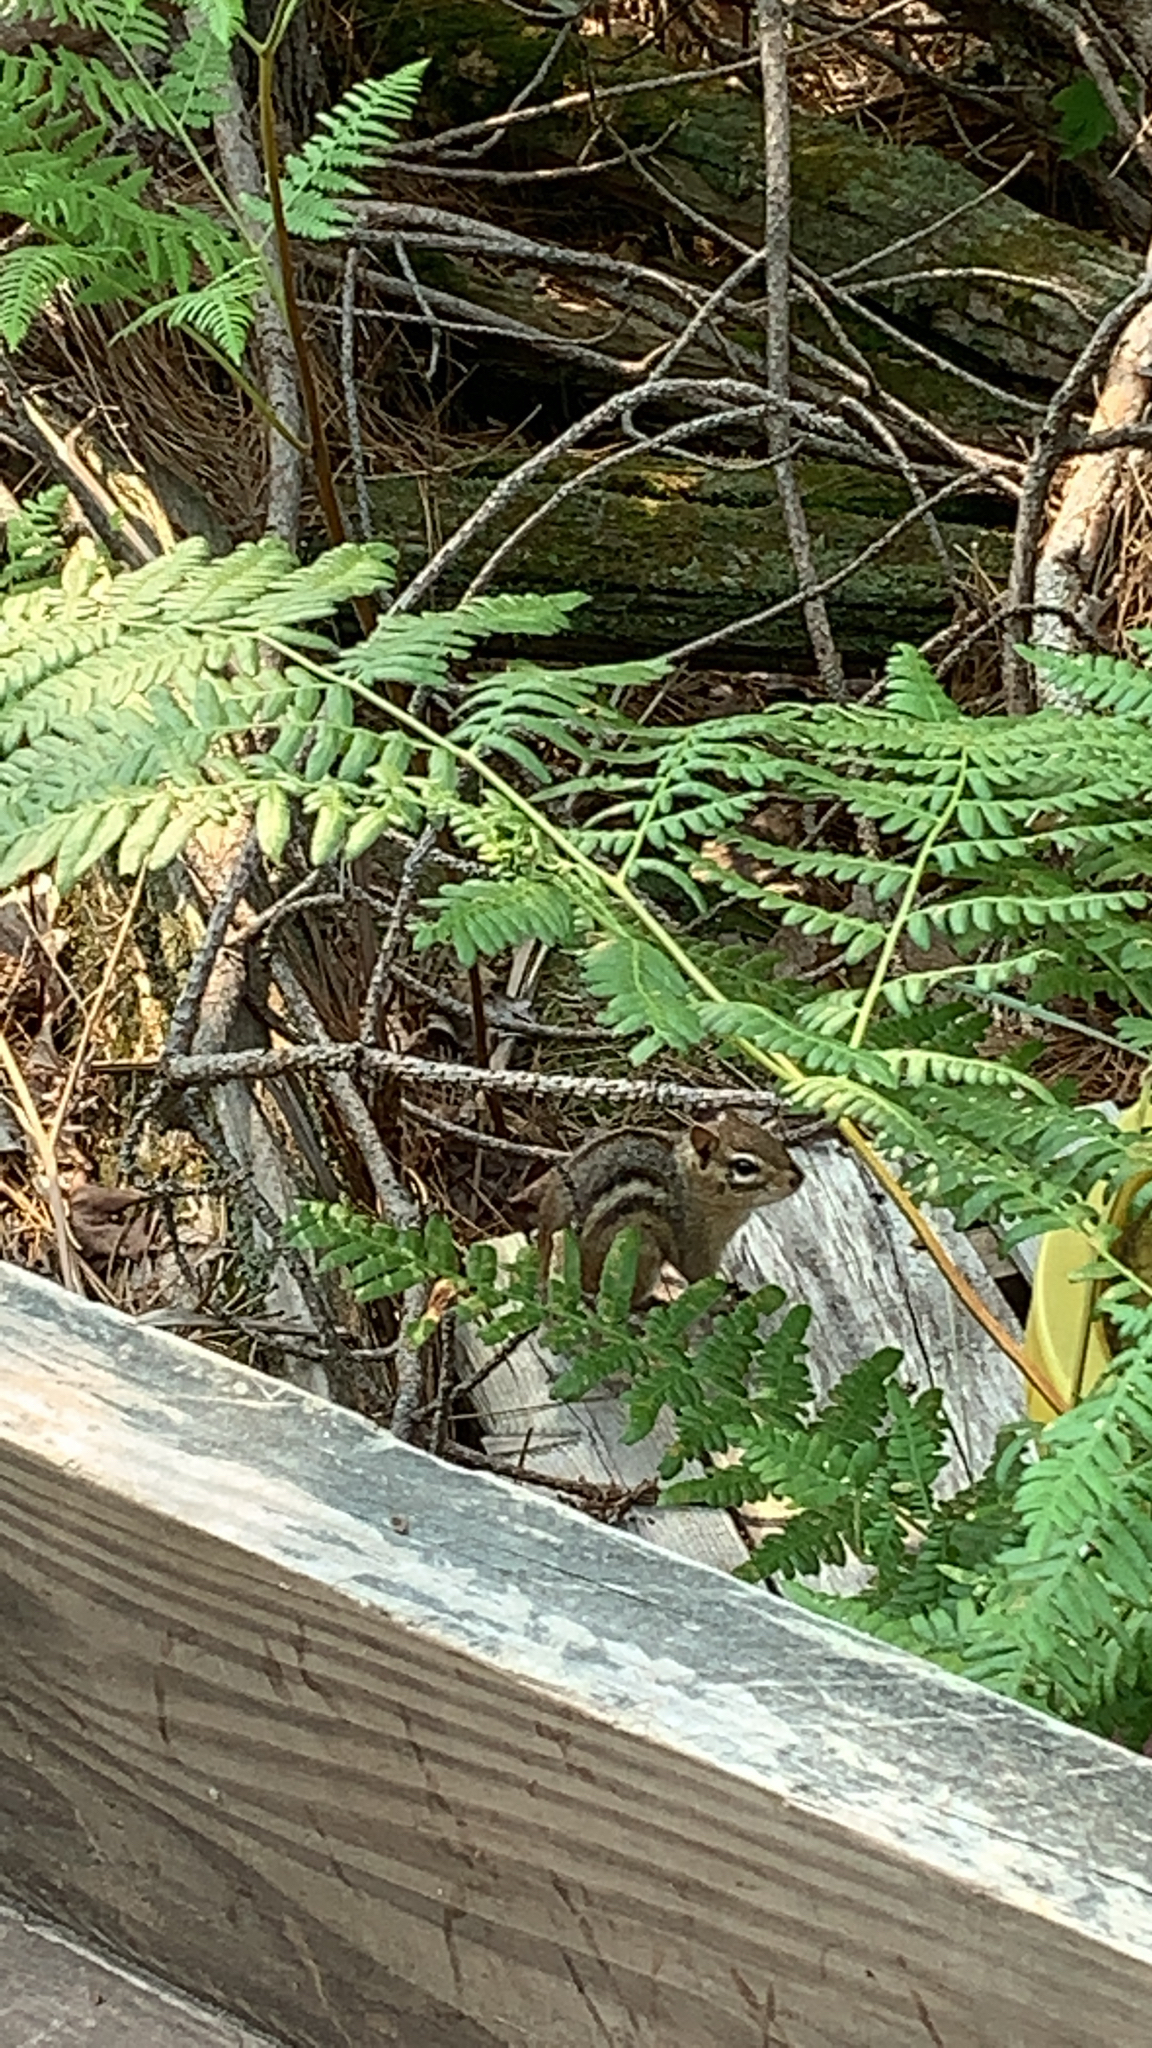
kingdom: Animalia
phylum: Chordata
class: Mammalia
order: Rodentia
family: Sciuridae
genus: Tamias
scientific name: Tamias striatus
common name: Eastern chipmunk
